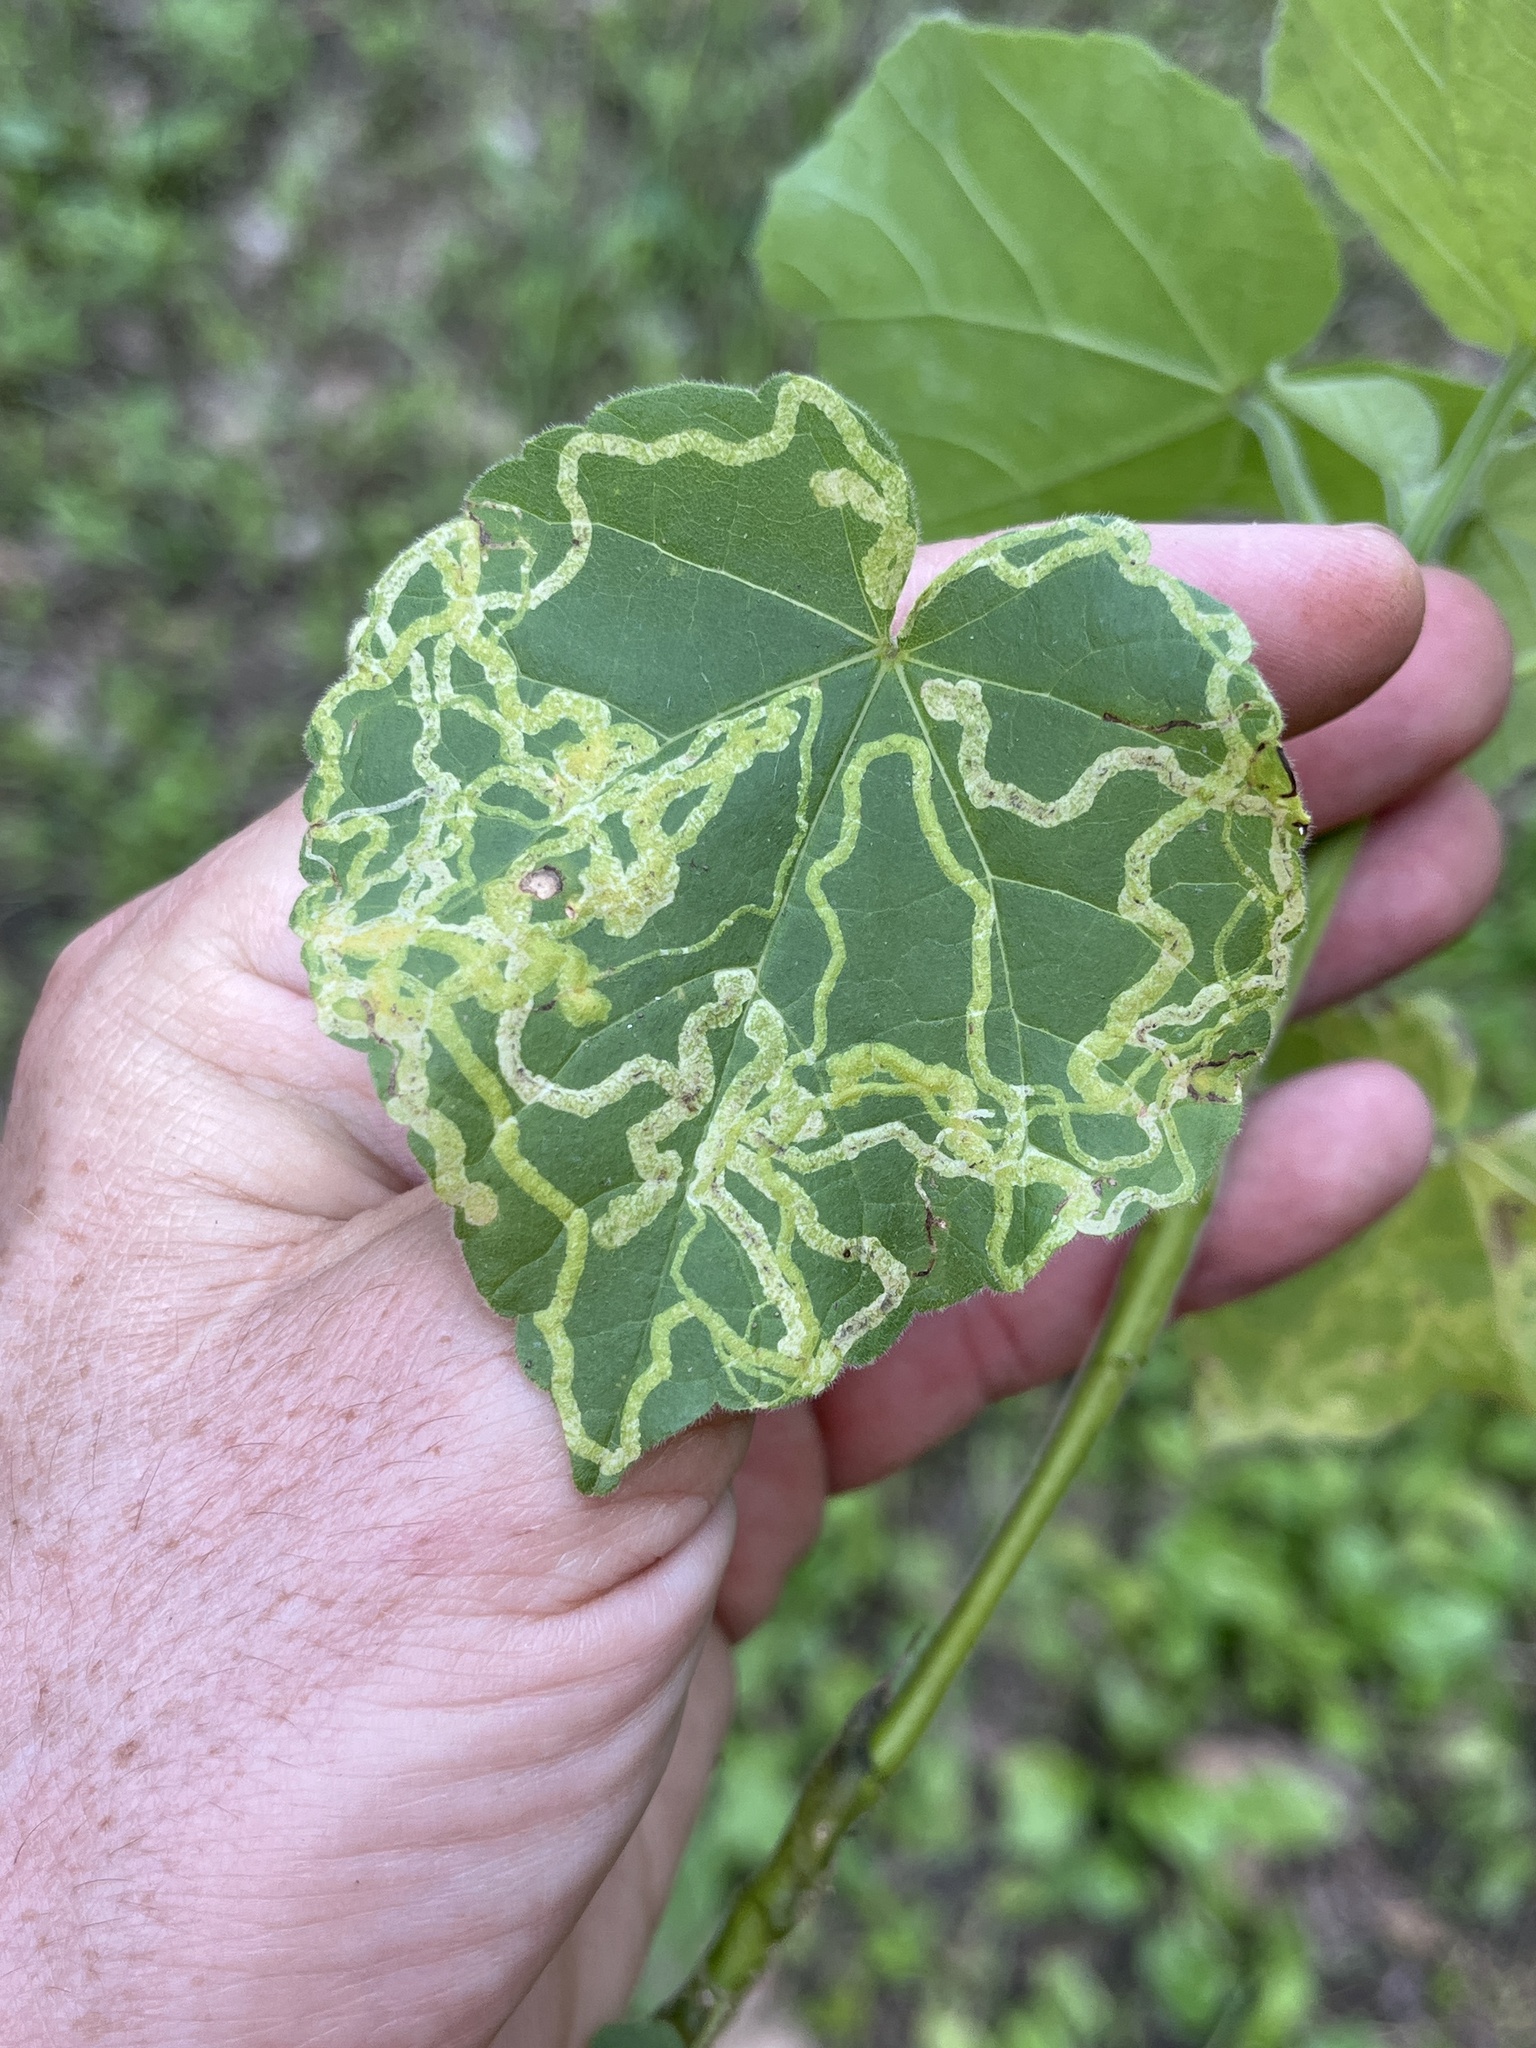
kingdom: Animalia
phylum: Arthropoda
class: Insecta
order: Diptera
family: Agromyzidae
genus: Calycomyza
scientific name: Calycomyza malvae
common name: Mallow leaf miner
